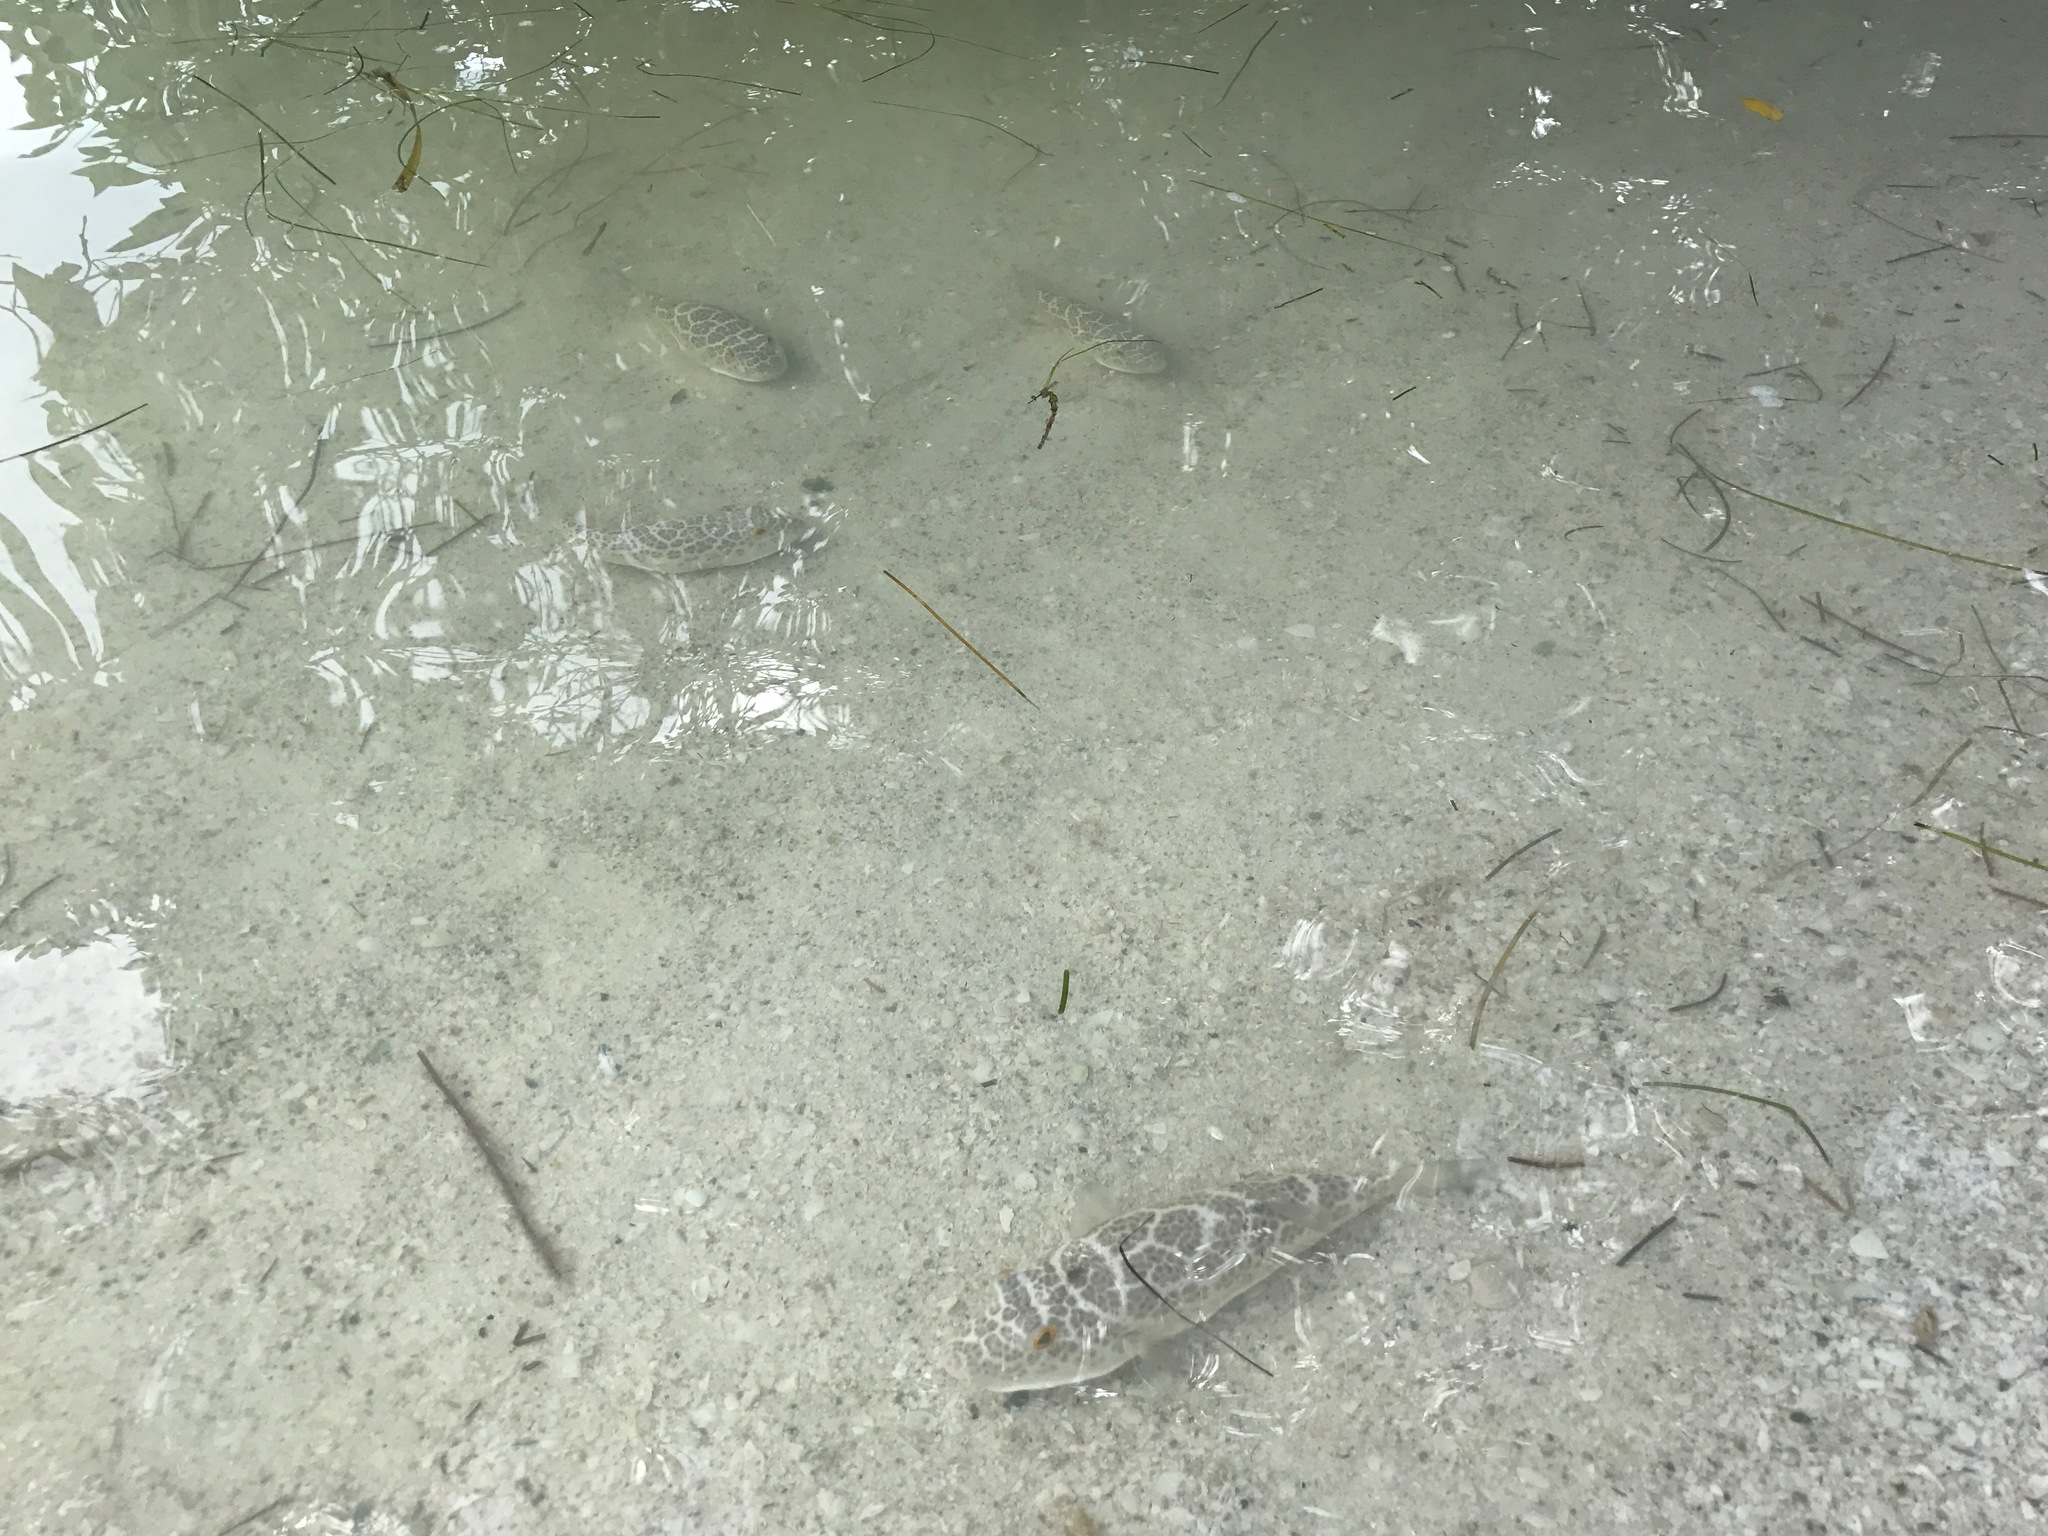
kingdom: Animalia
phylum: Chordata
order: Tetraodontiformes
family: Tetraodontidae
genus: Sphoeroides
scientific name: Sphoeroides testudineus
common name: Checkered puffer
